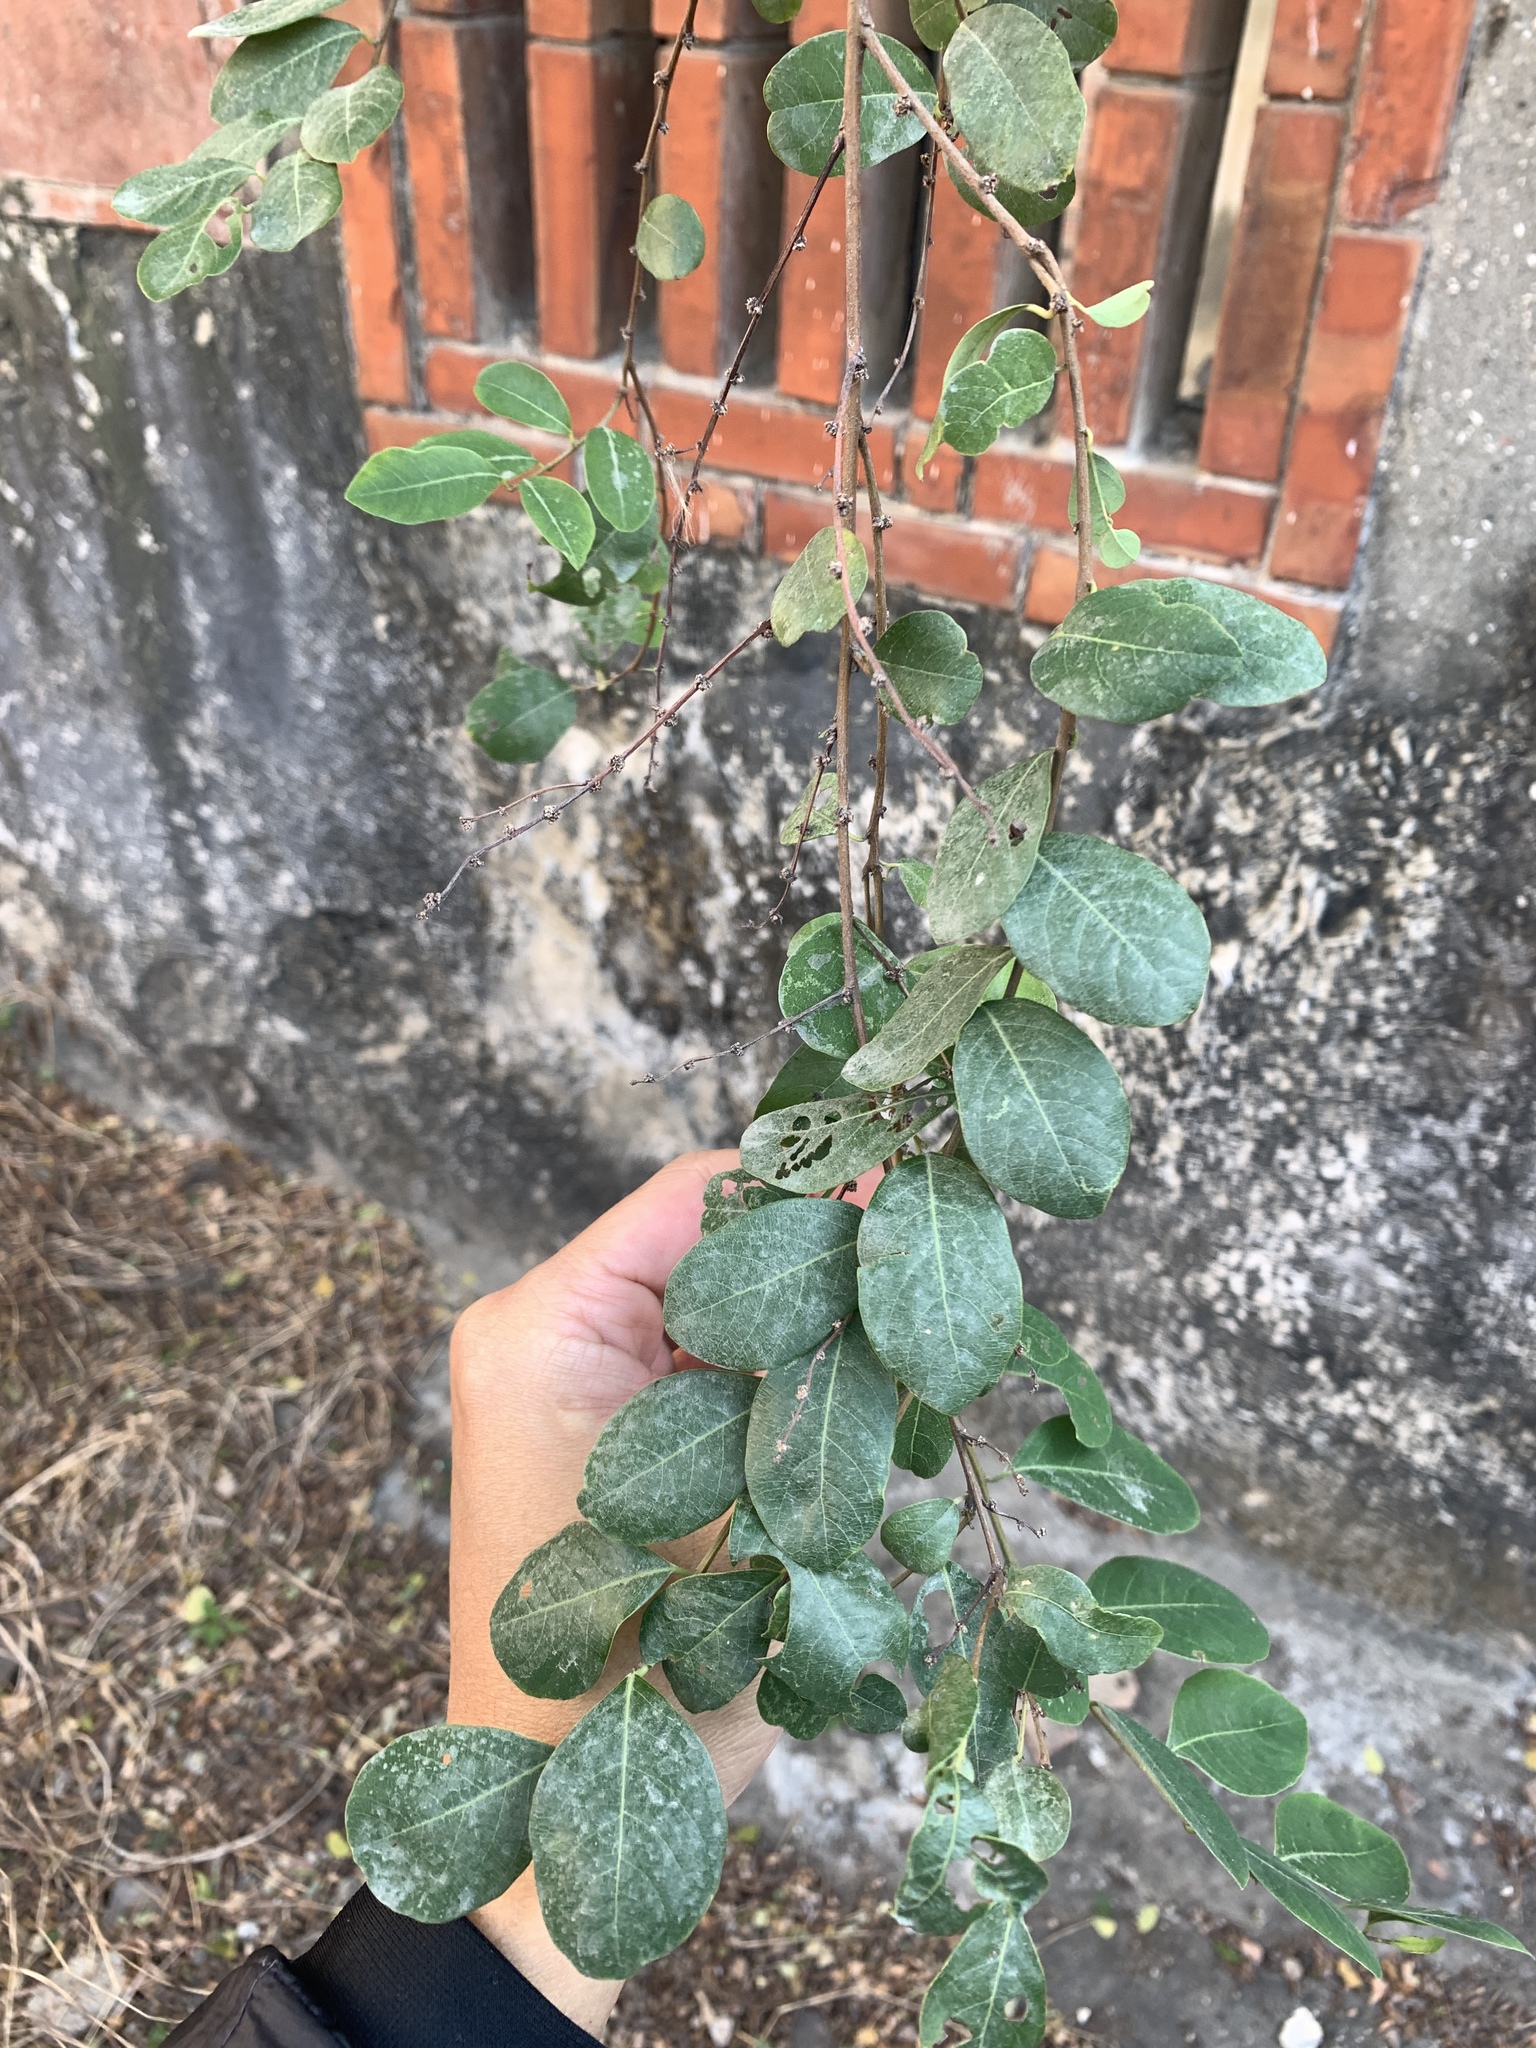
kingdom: Plantae
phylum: Tracheophyta
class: Magnoliopsida
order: Malpighiales
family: Phyllanthaceae
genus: Flueggea
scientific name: Flueggea virosa
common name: Common bushweed
